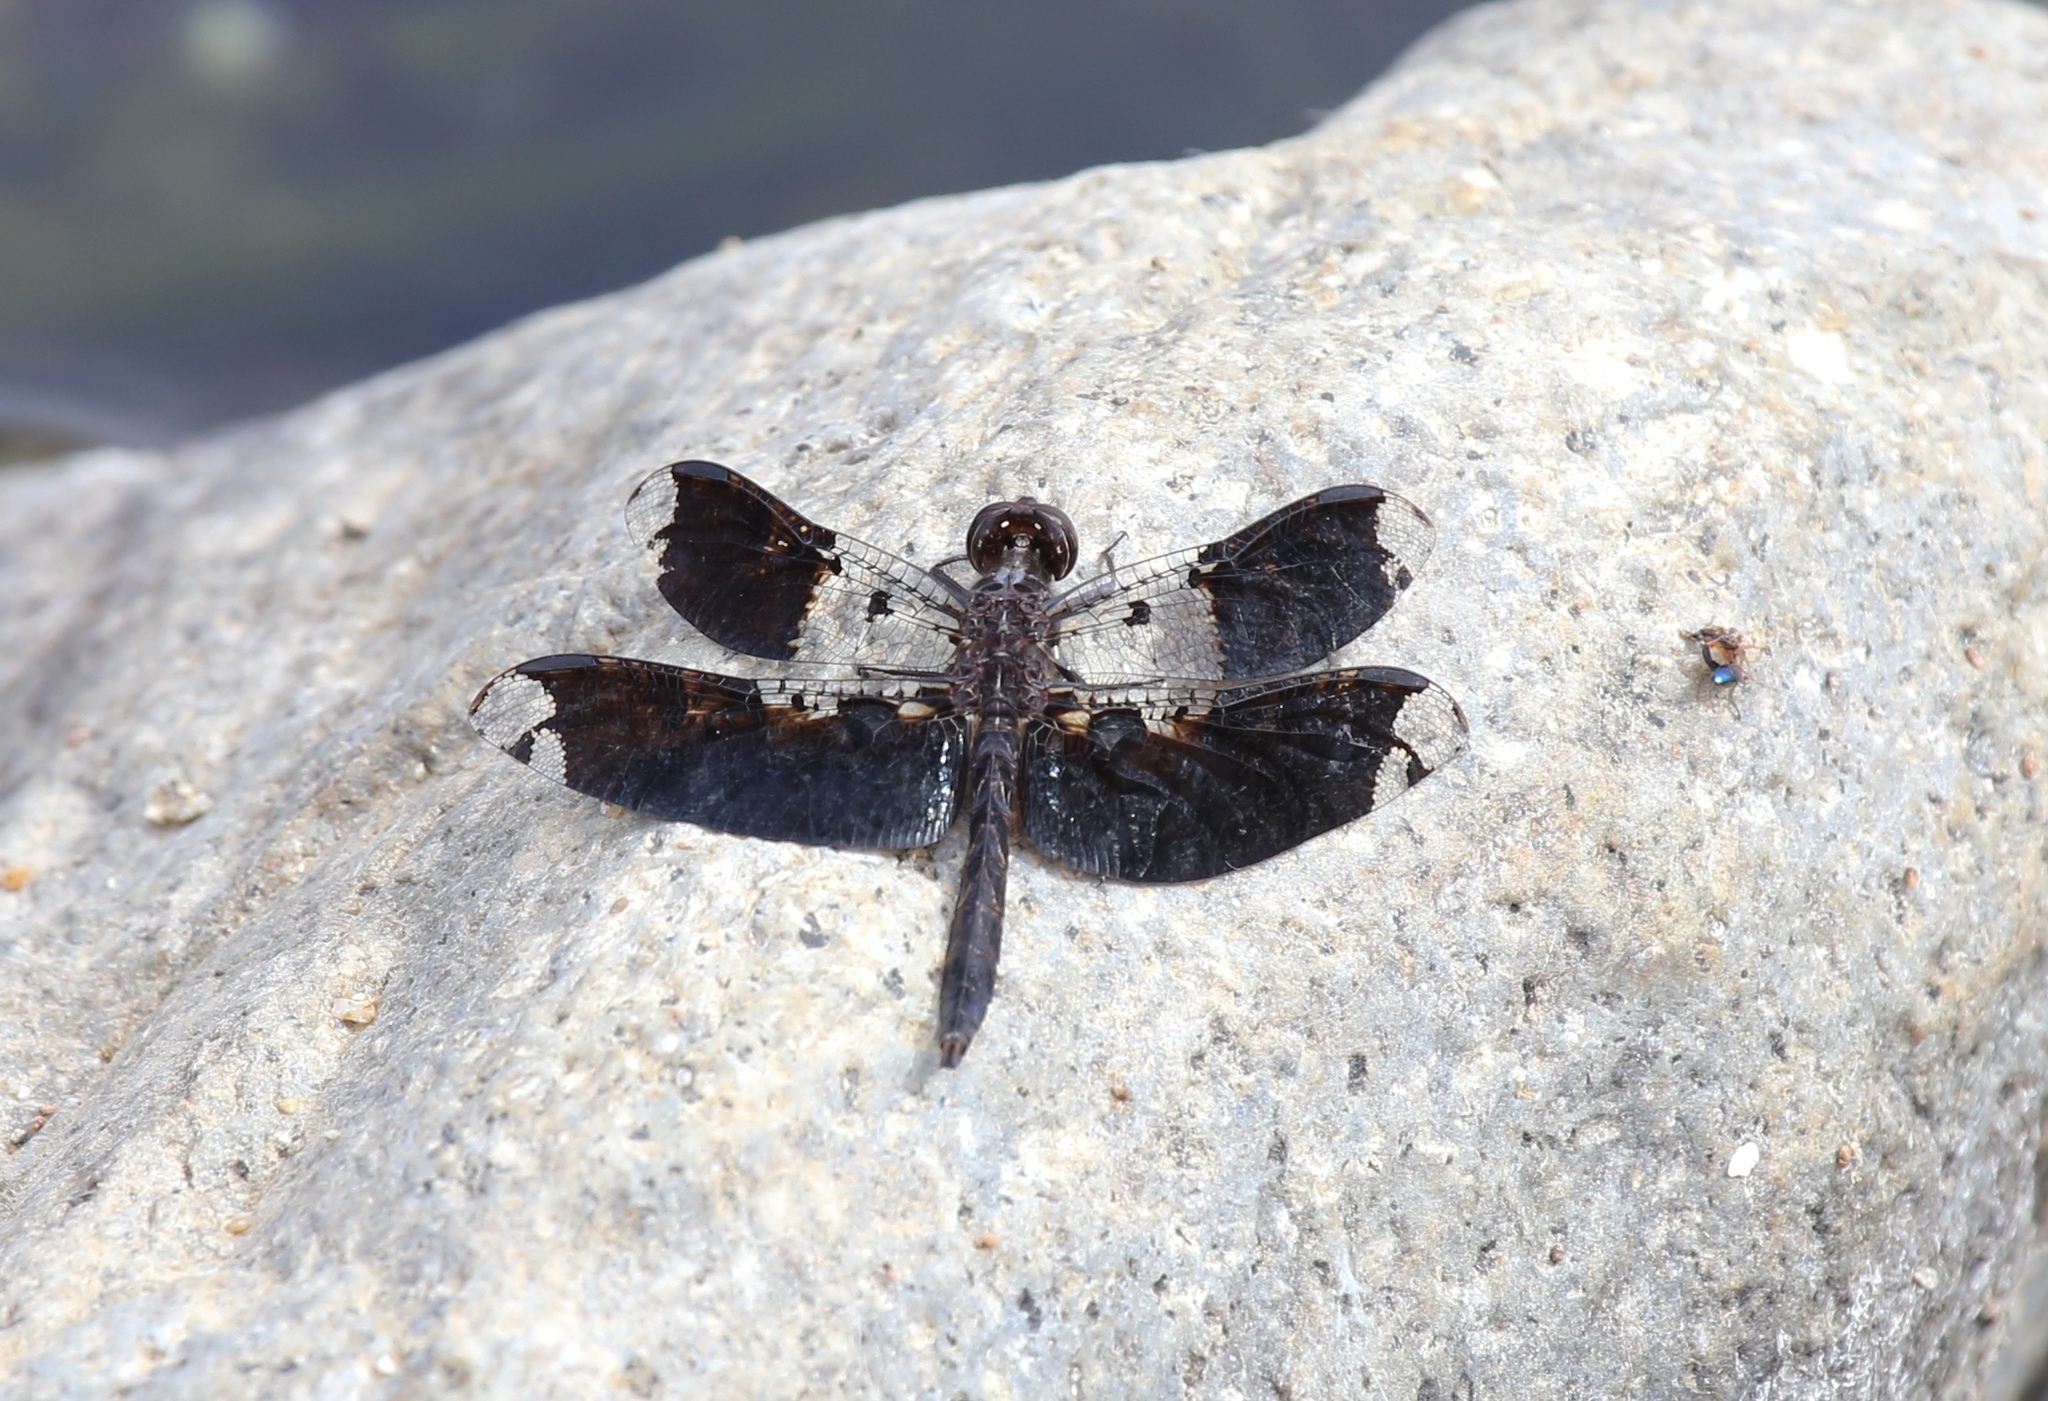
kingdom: Animalia
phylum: Arthropoda
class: Insecta
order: Odonata
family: Libellulidae
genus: Pseudoleon
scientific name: Pseudoleon superbus
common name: Filigree skimmer
